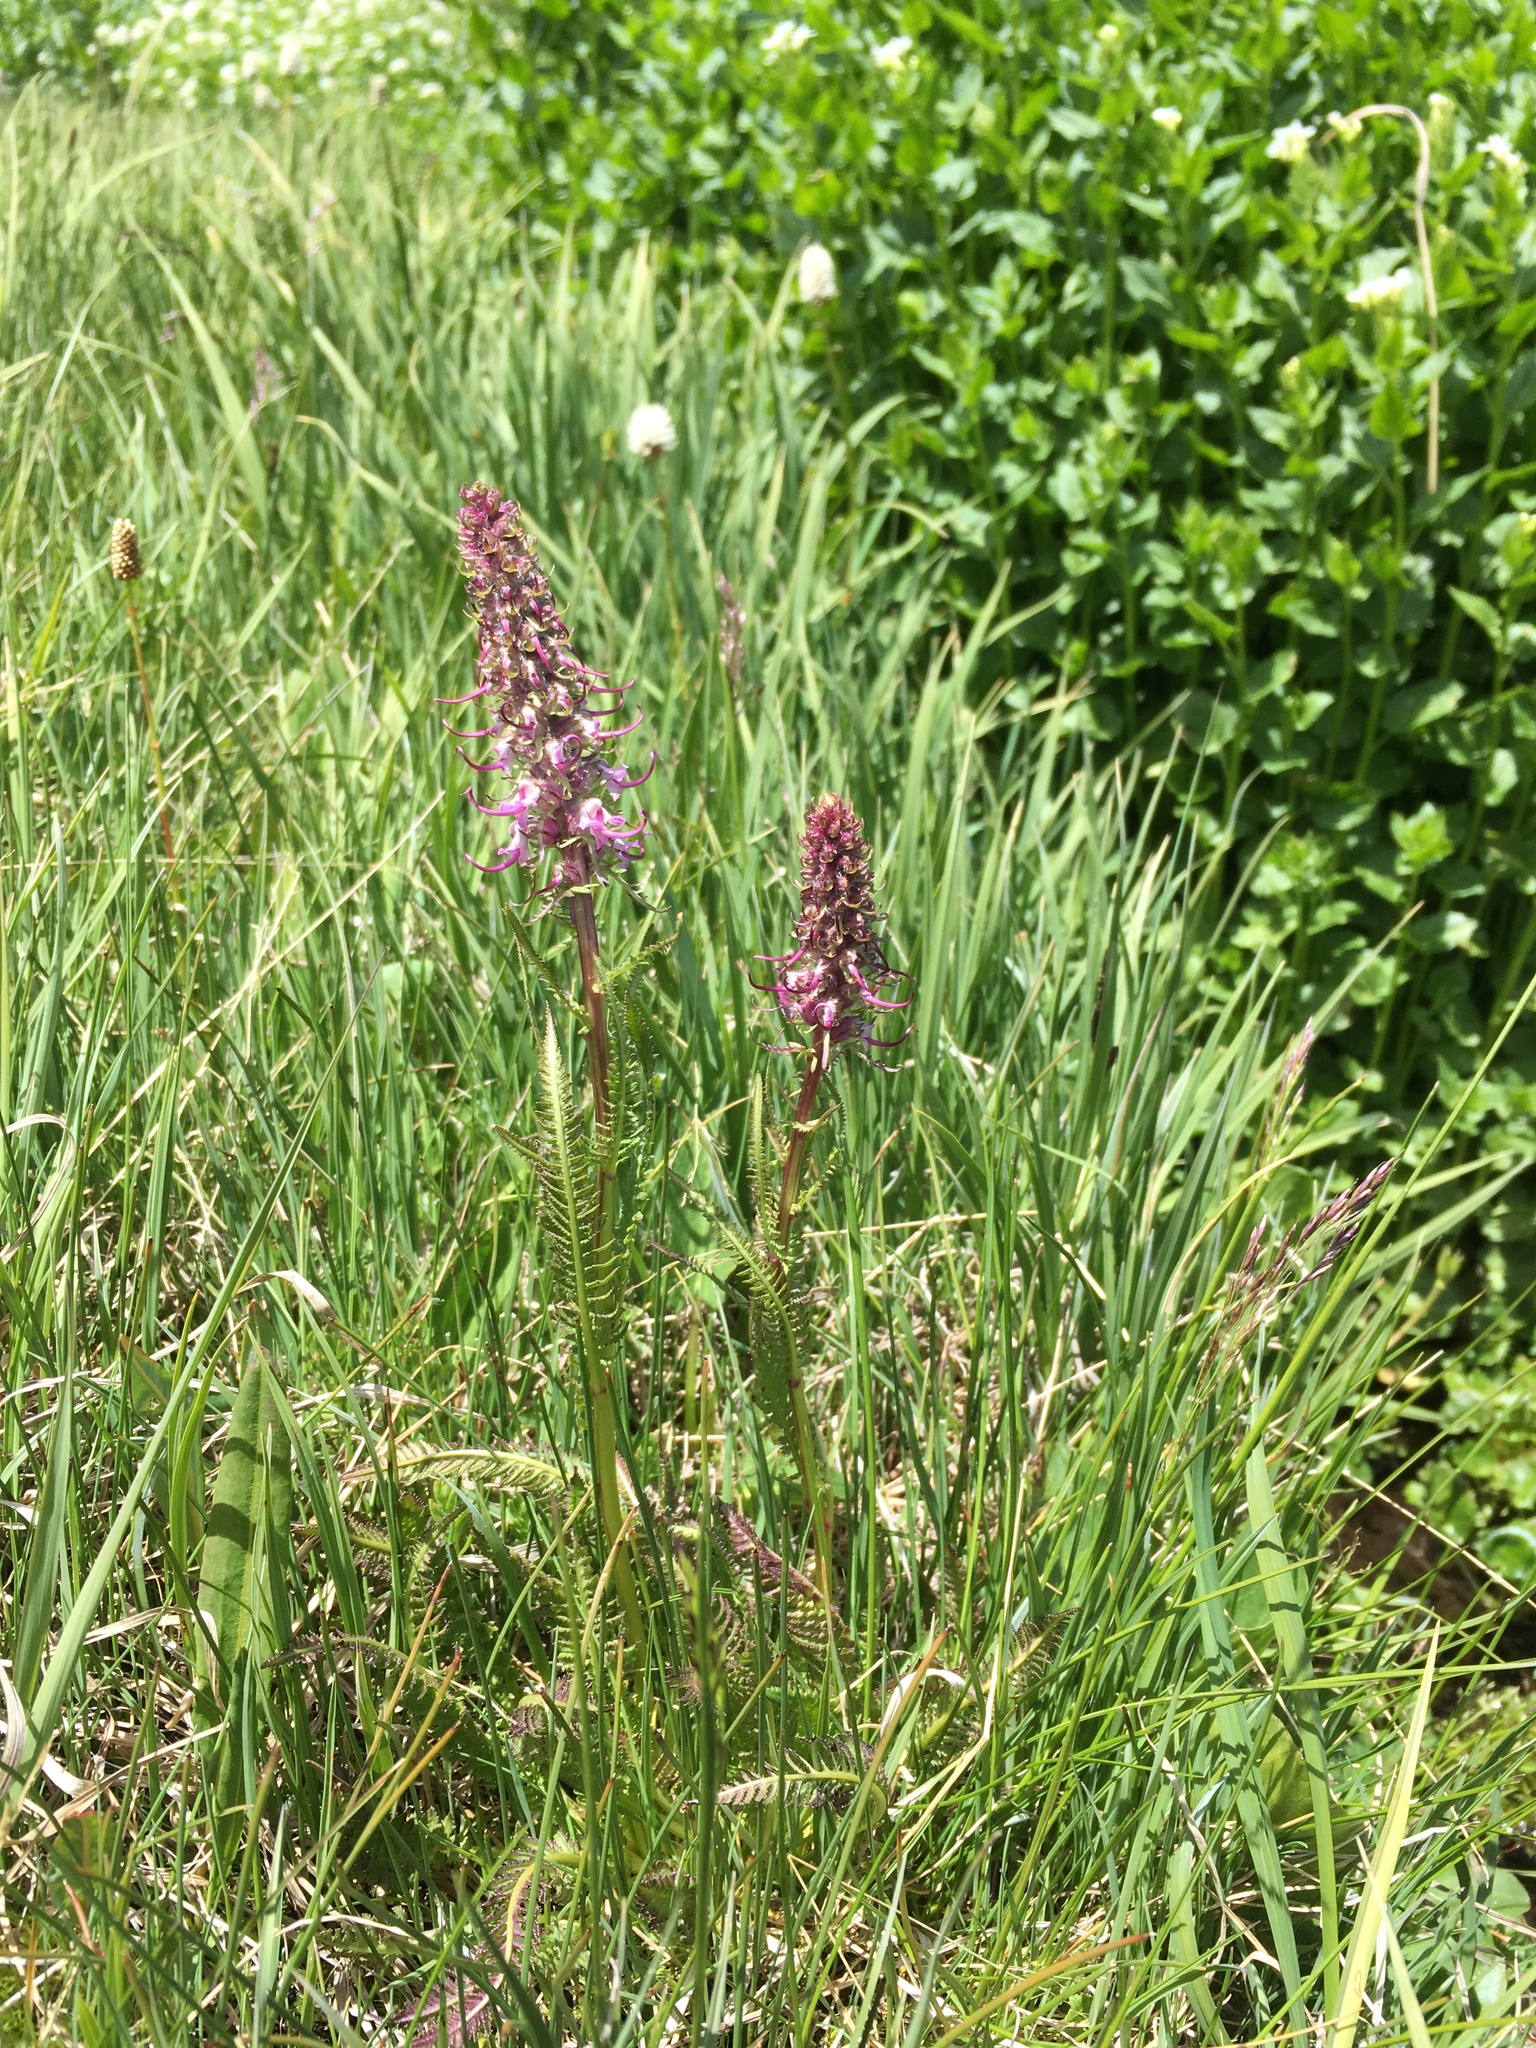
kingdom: Plantae
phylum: Tracheophyta
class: Magnoliopsida
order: Lamiales
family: Orobanchaceae
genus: Pedicularis
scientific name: Pedicularis groenlandica
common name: Elephant's-head
